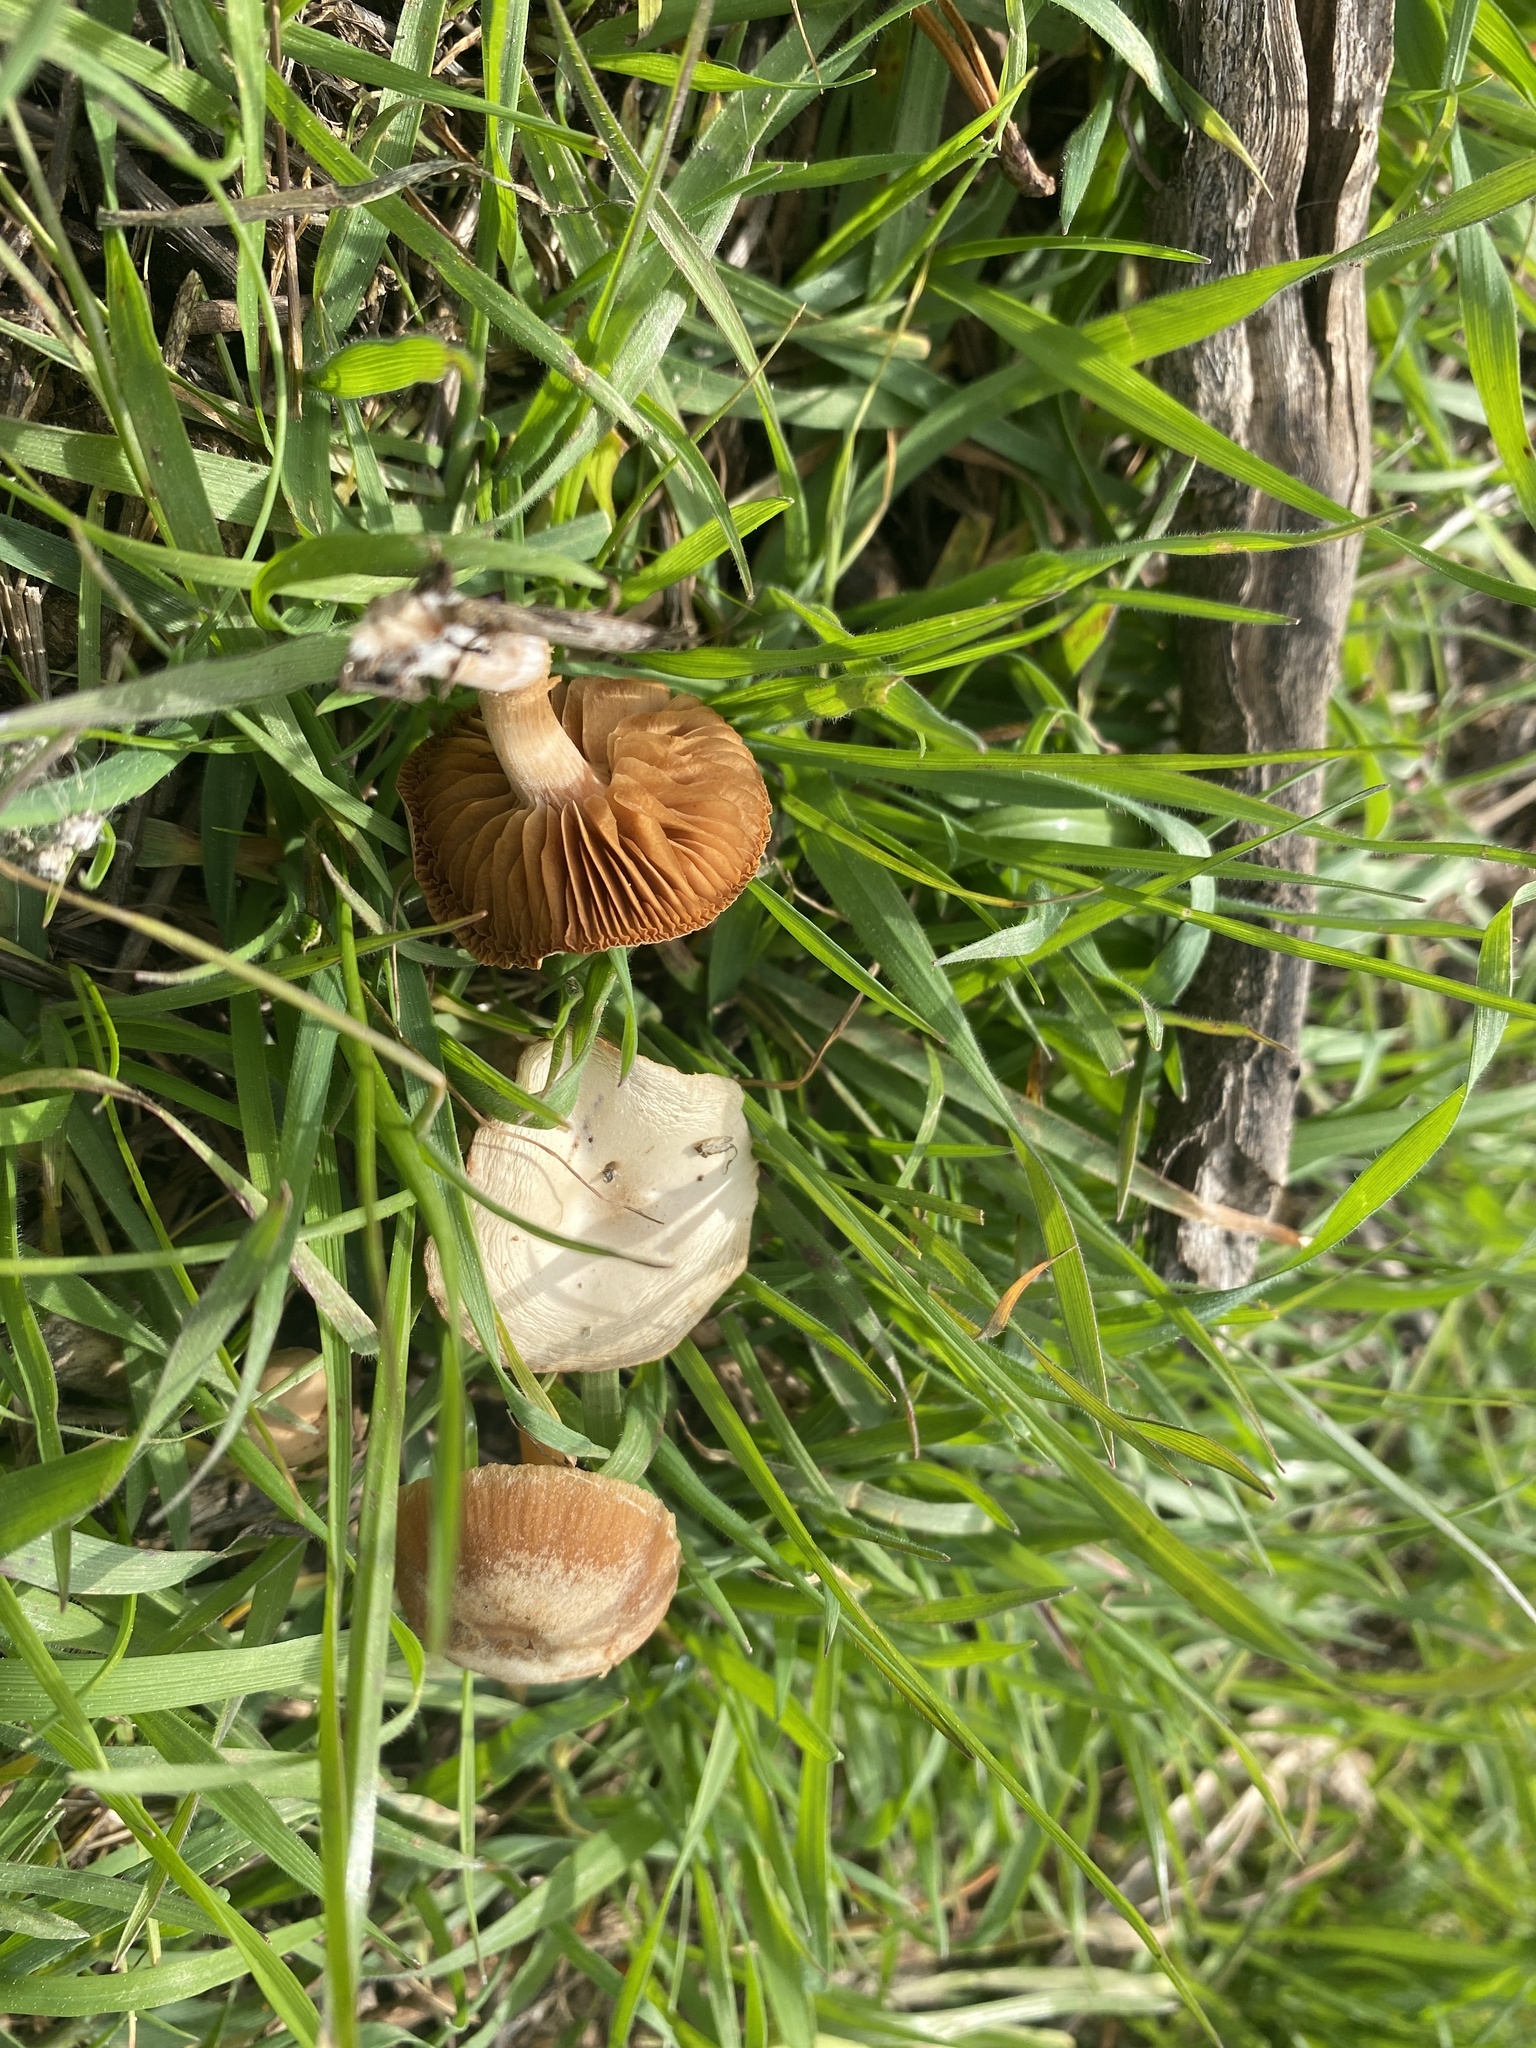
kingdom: Fungi
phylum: Basidiomycota
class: Agaricomycetes
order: Agaricales
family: Tubariaceae
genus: Tubaria
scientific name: Tubaria furfuracea
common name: Scurfy twiglet
